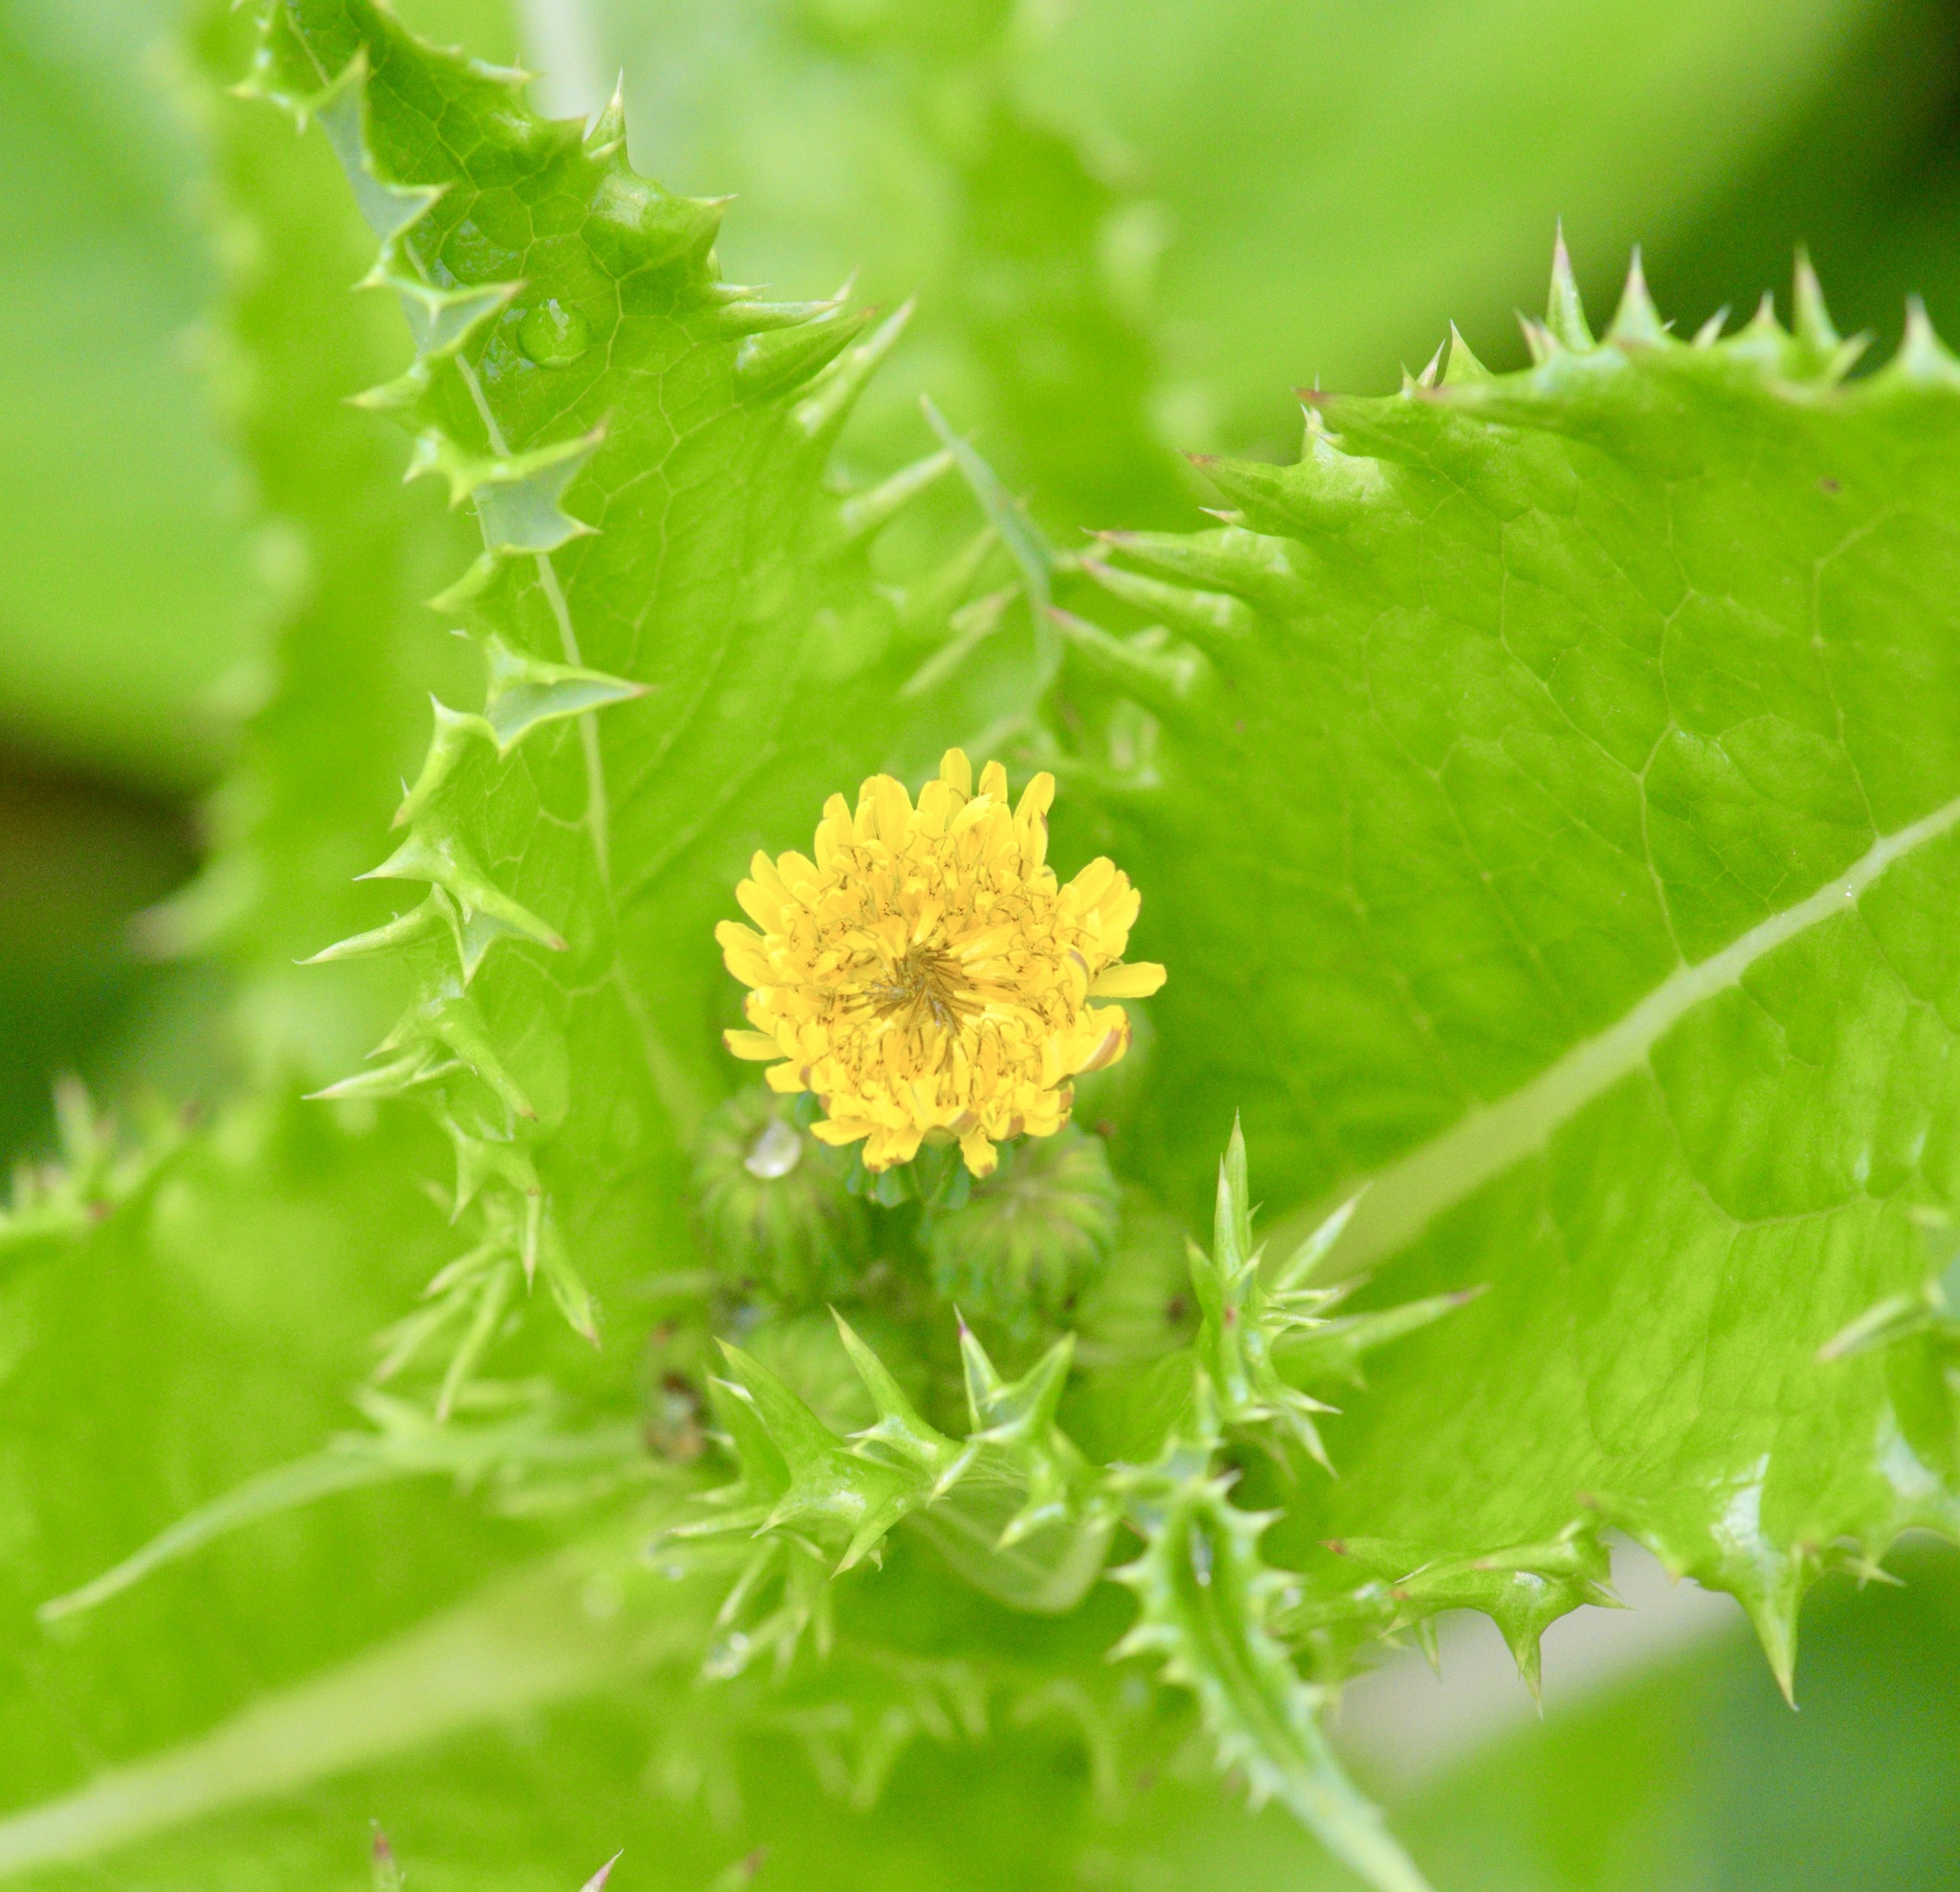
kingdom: Plantae
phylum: Tracheophyta
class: Magnoliopsida
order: Asterales
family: Asteraceae
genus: Sonchus
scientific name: Sonchus asper
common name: Prickly sow-thistle
